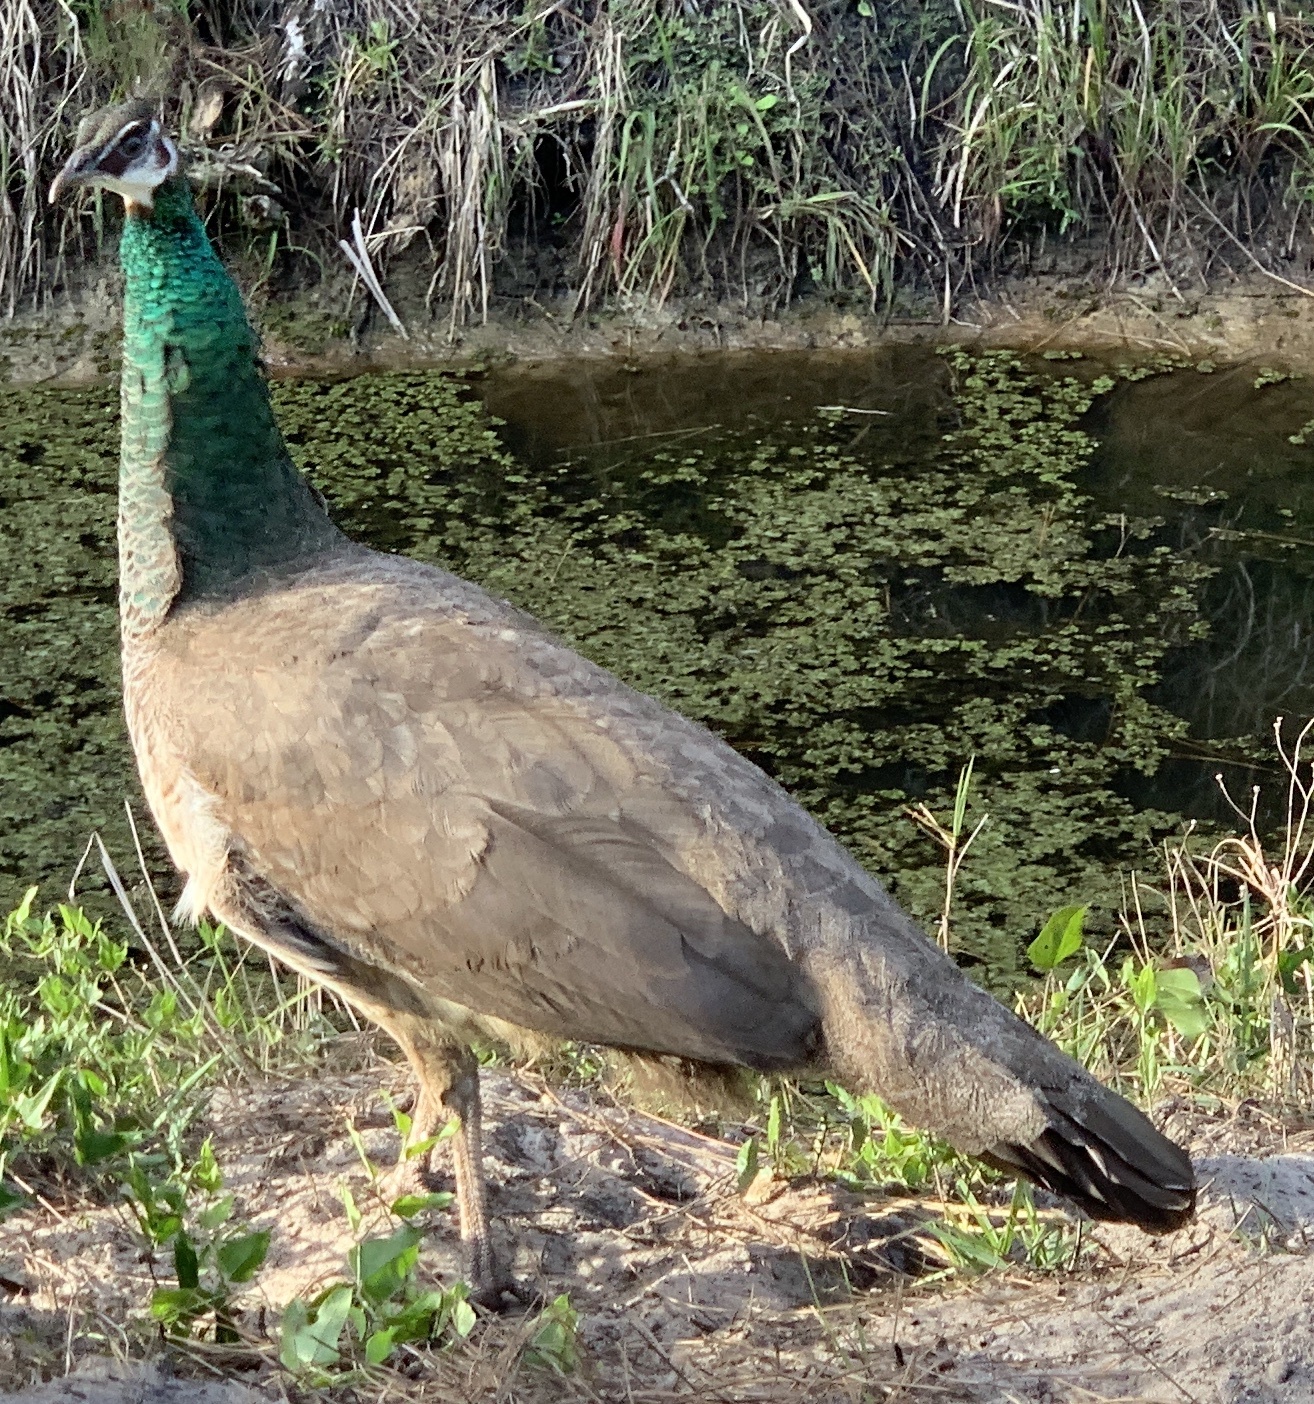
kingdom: Animalia
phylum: Chordata
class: Aves
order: Galliformes
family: Phasianidae
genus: Pavo
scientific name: Pavo cristatus
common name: Indian peafowl
